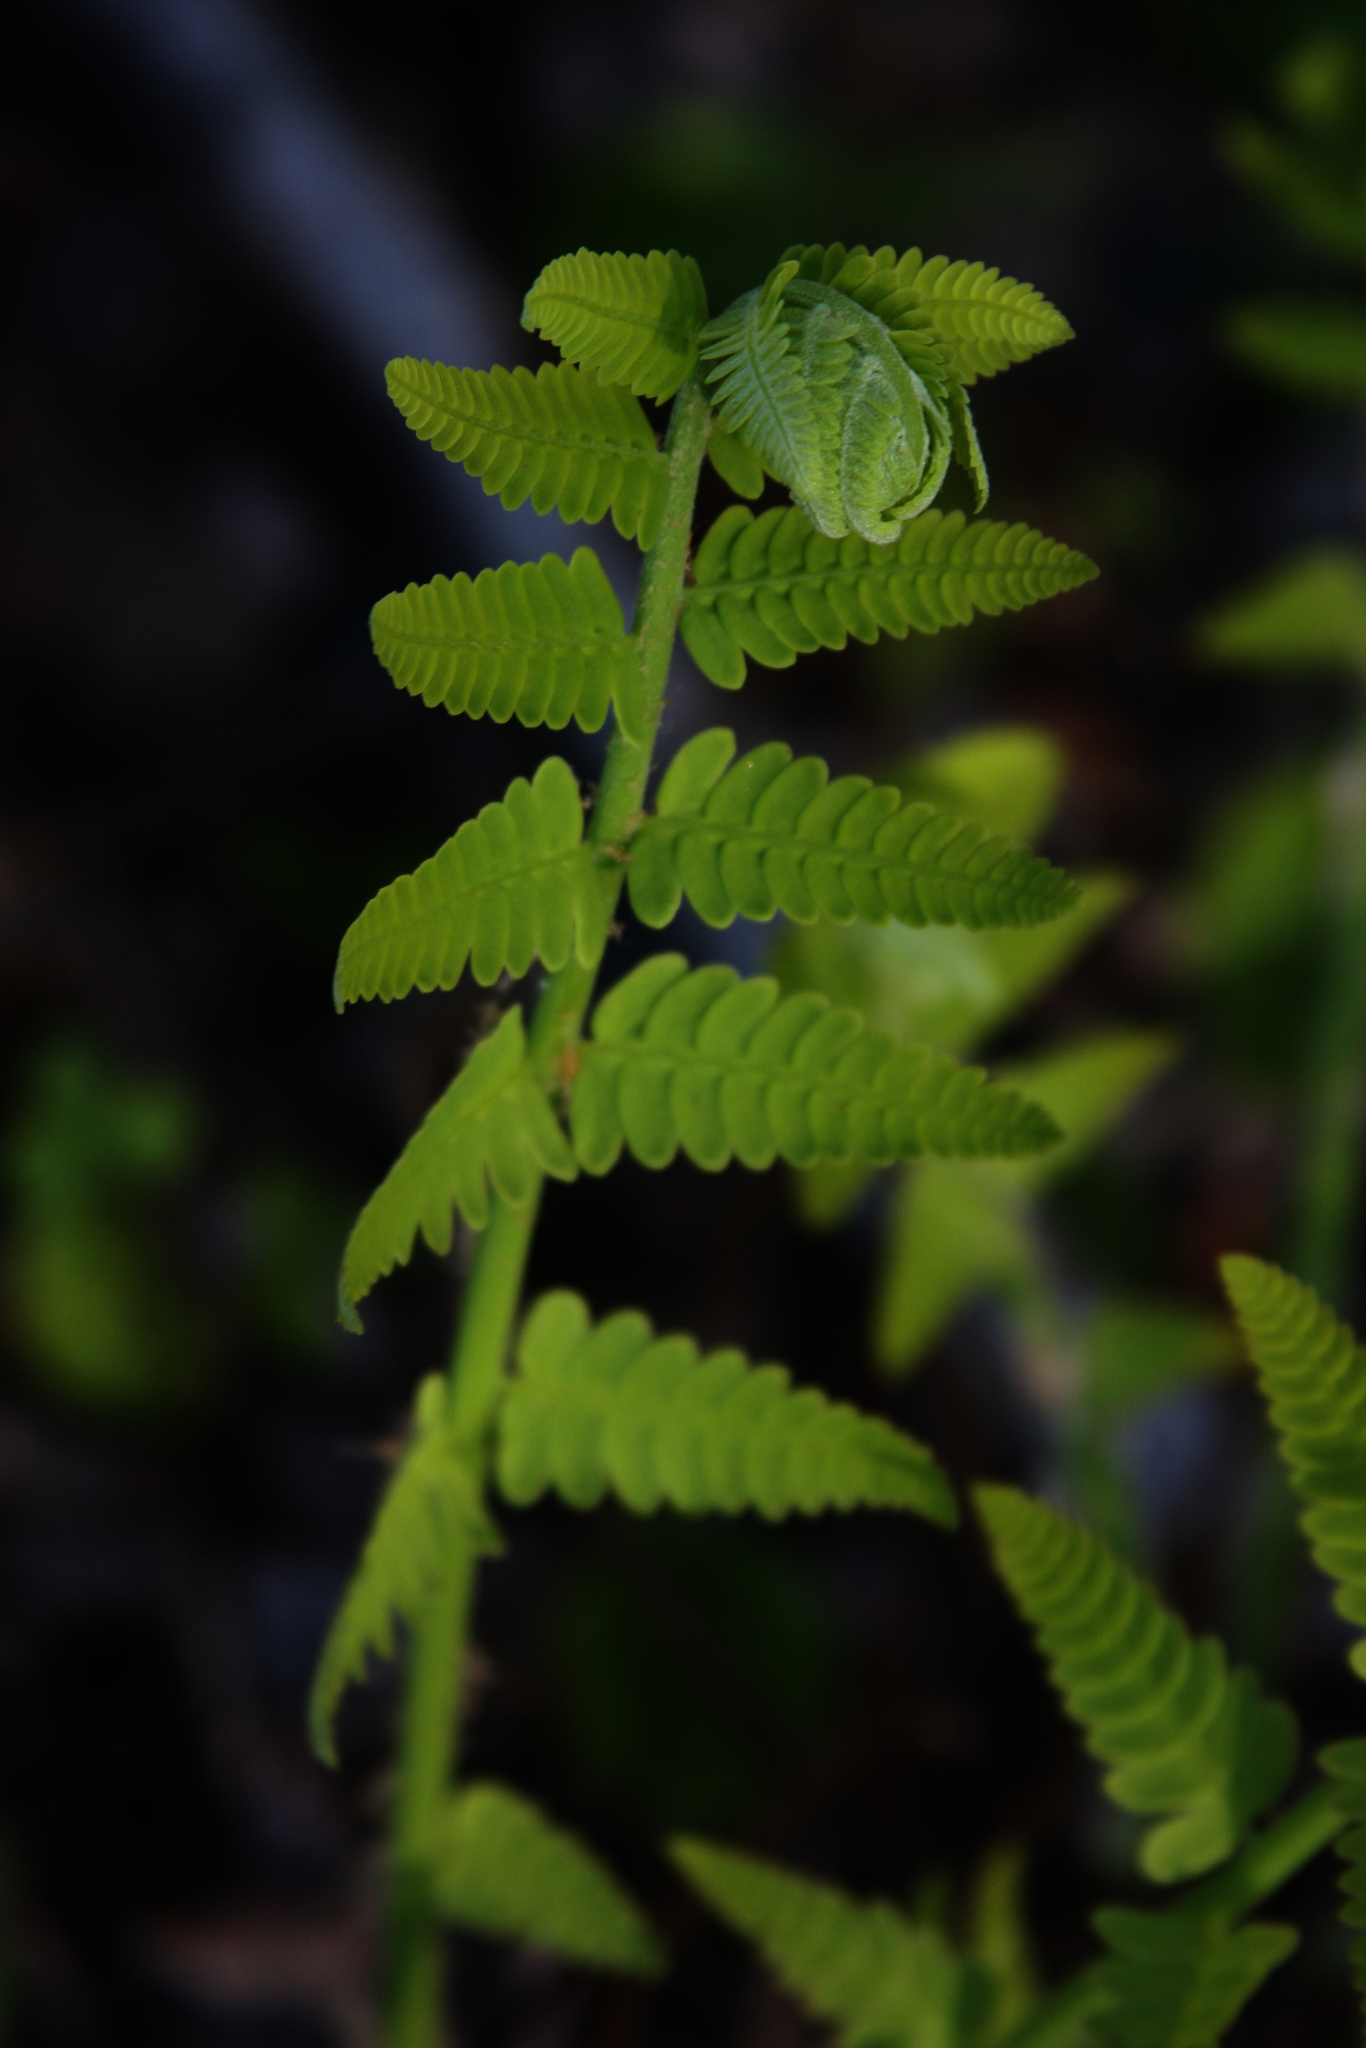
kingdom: Plantae
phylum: Tracheophyta
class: Polypodiopsida
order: Osmundales
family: Osmundaceae
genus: Claytosmunda
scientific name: Claytosmunda claytoniana
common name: Clayton's fern
